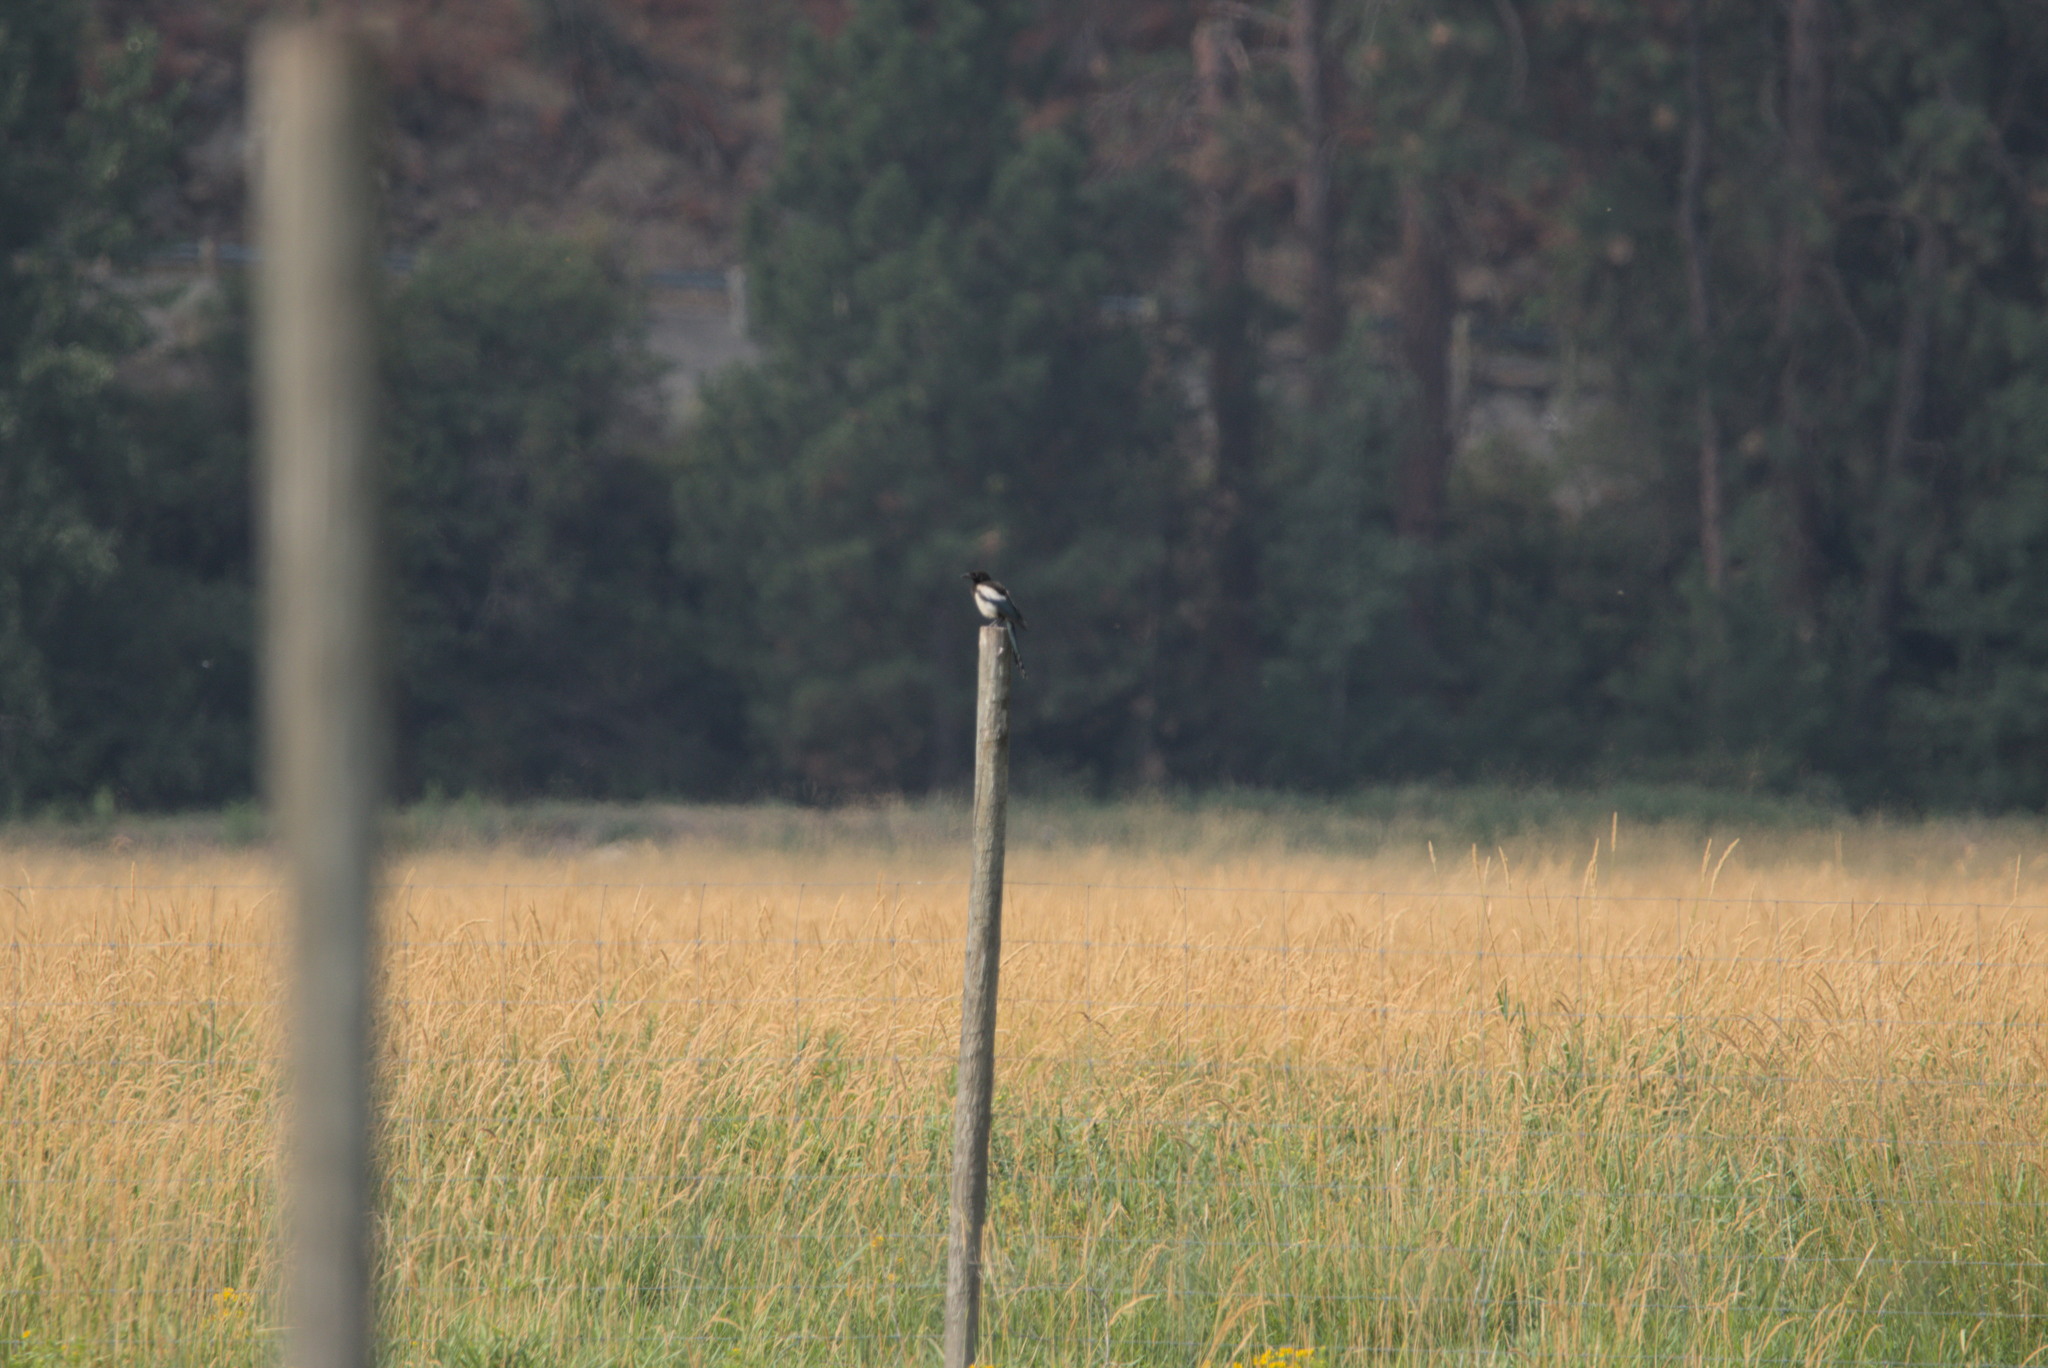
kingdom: Animalia
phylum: Chordata
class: Aves
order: Passeriformes
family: Corvidae
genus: Pica
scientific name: Pica hudsonia
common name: Black-billed magpie
